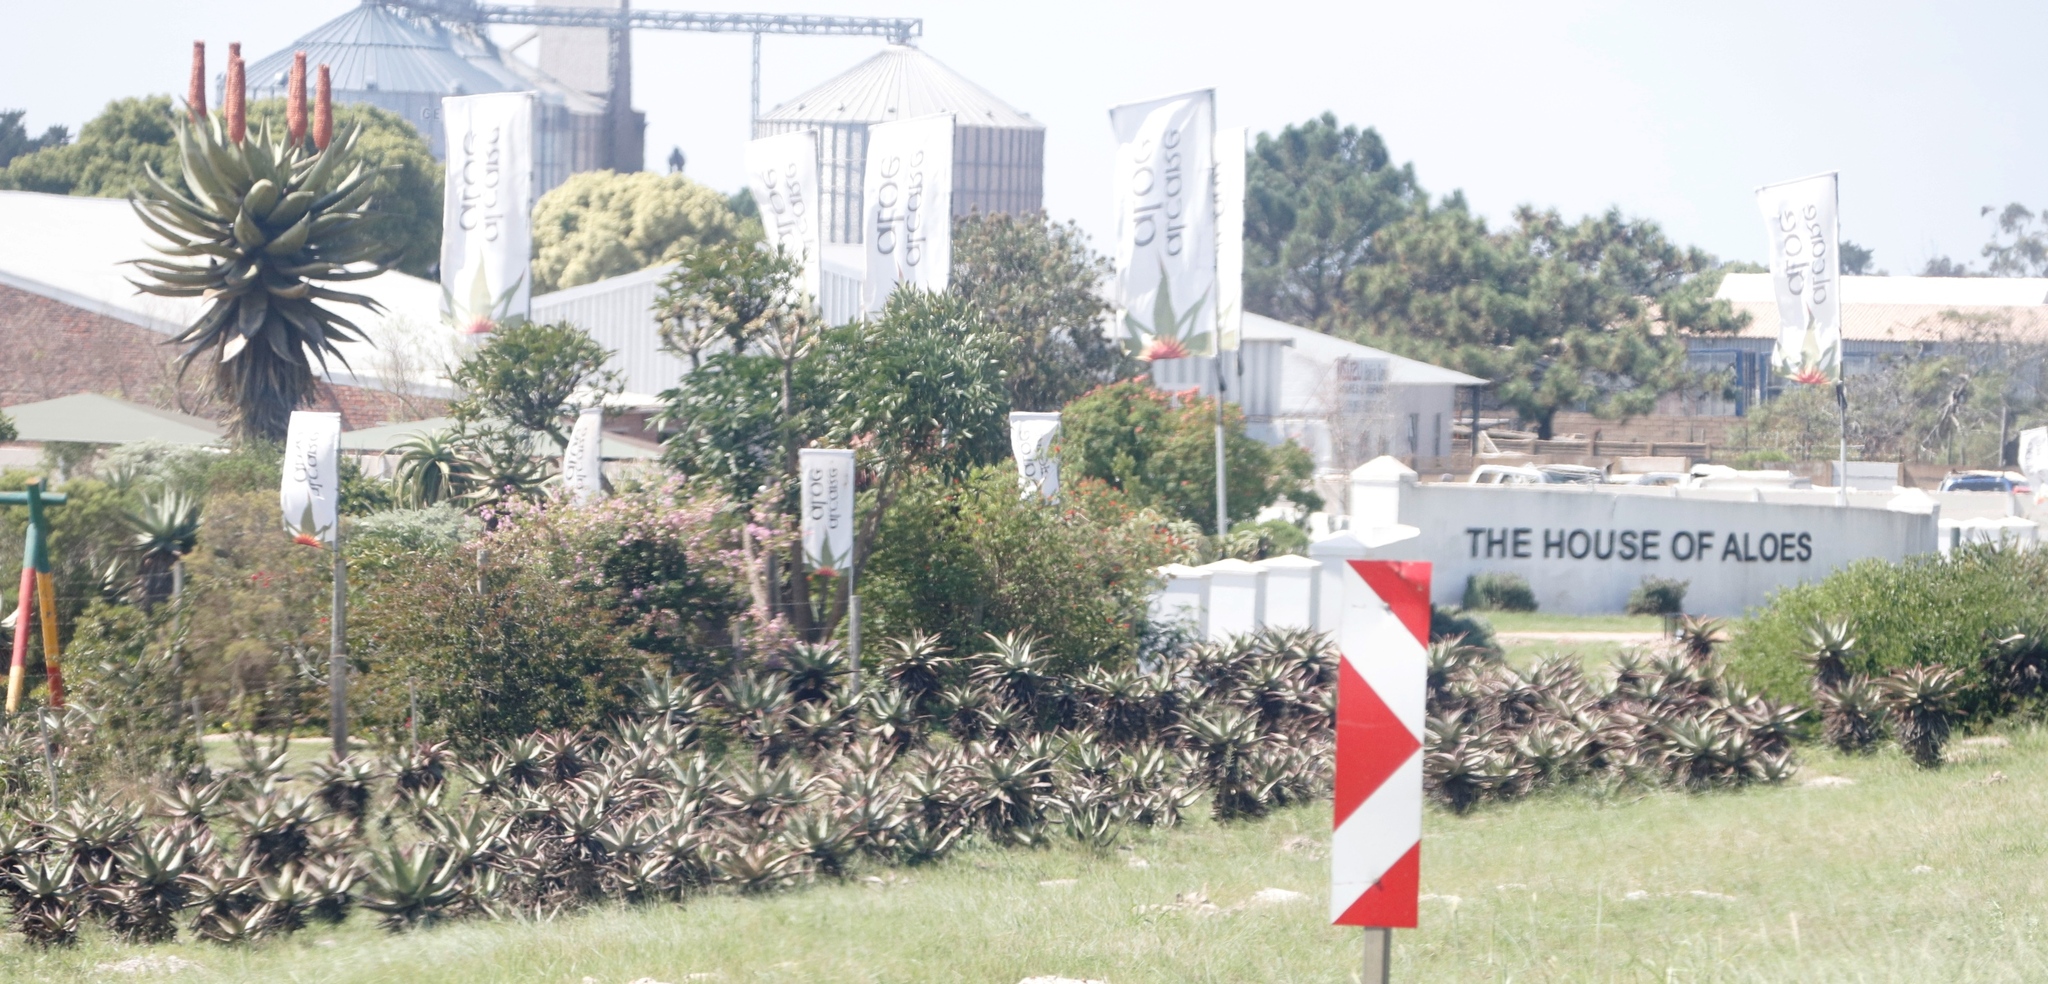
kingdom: Plantae
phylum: Tracheophyta
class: Liliopsida
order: Asparagales
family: Asphodelaceae
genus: Aloe
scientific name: Aloe ferox
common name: Bitter aloe
